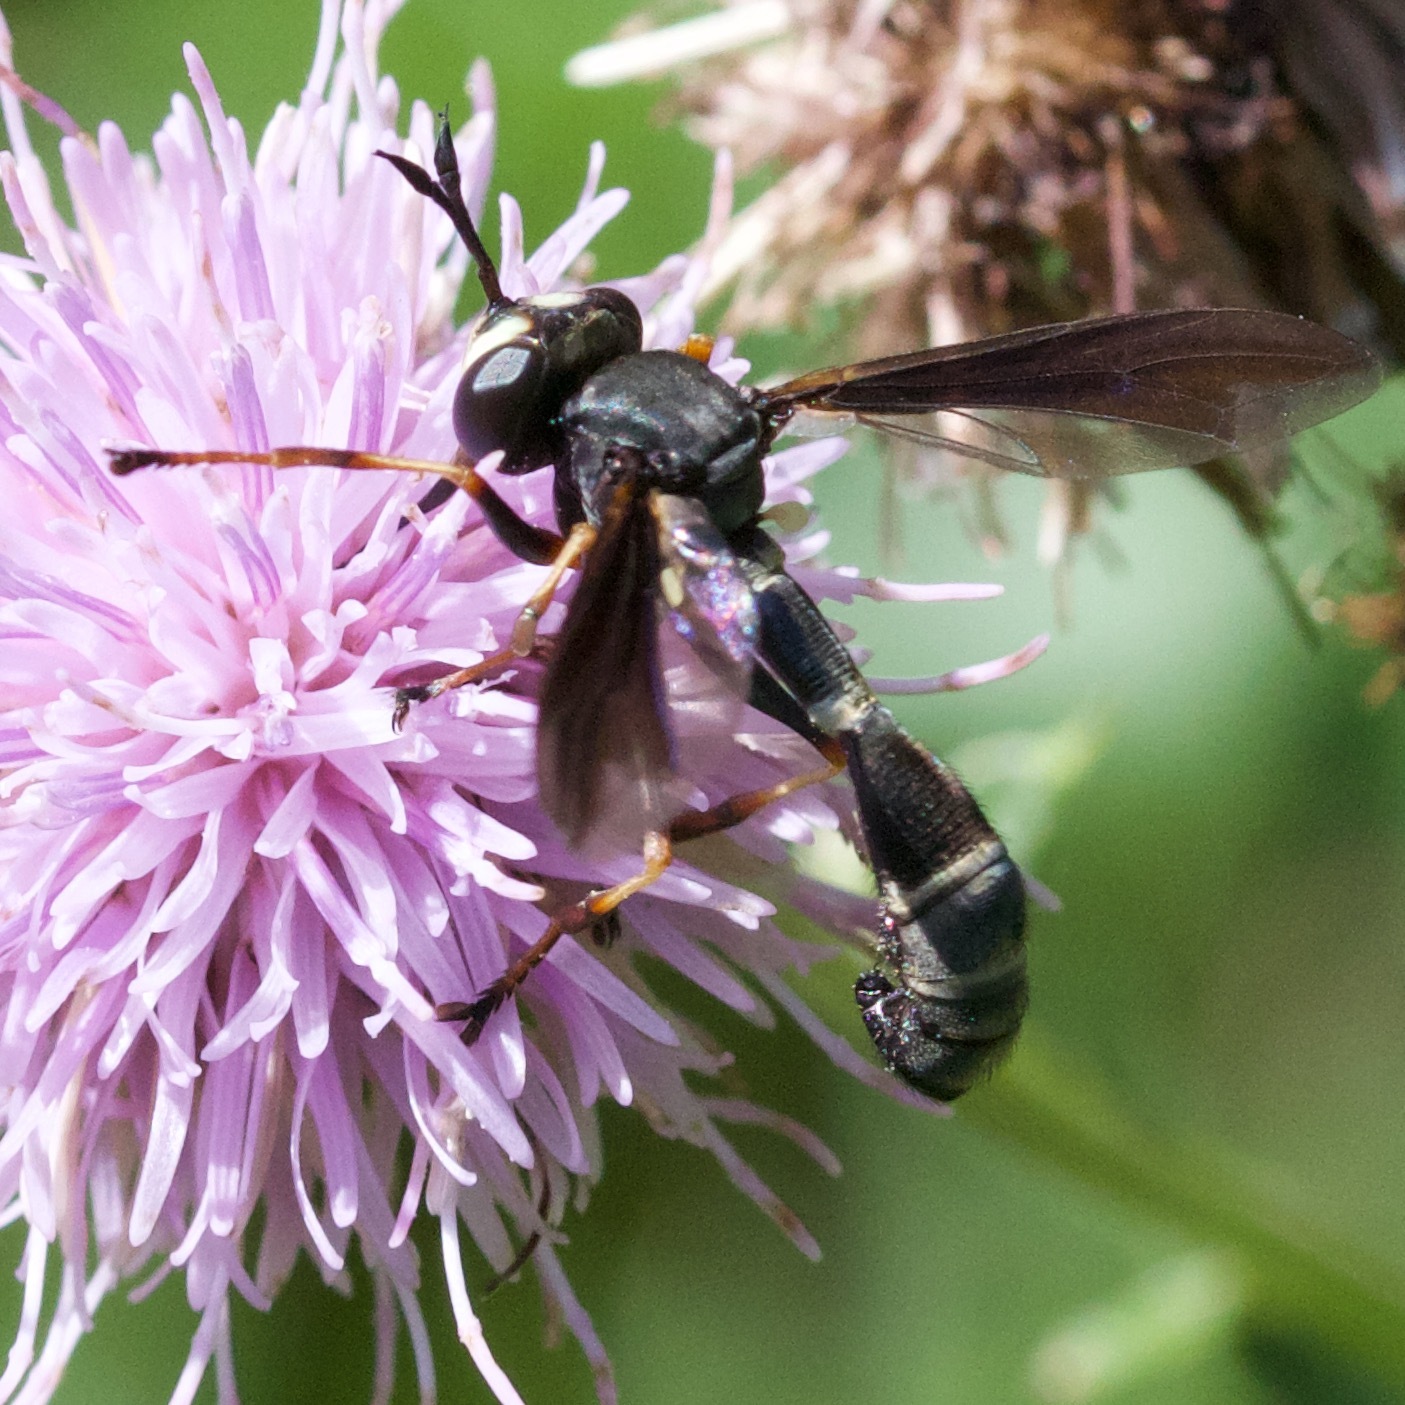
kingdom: Animalia
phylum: Arthropoda
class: Insecta
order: Diptera
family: Conopidae
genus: Physocephala
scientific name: Physocephala tibialis
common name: Common eastern physocephala
